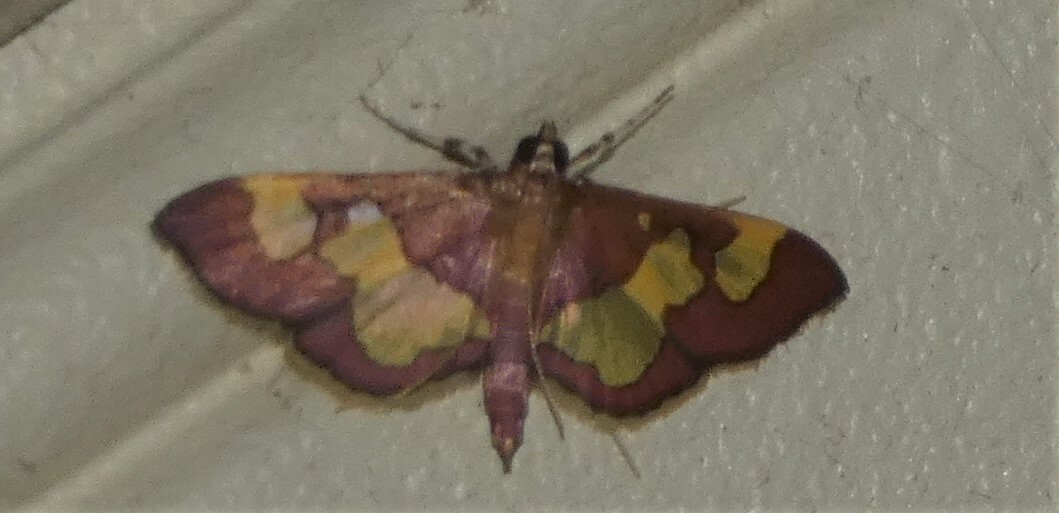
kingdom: Animalia
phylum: Arthropoda
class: Insecta
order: Lepidoptera
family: Crambidae
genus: Colomychus
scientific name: Colomychus talis
